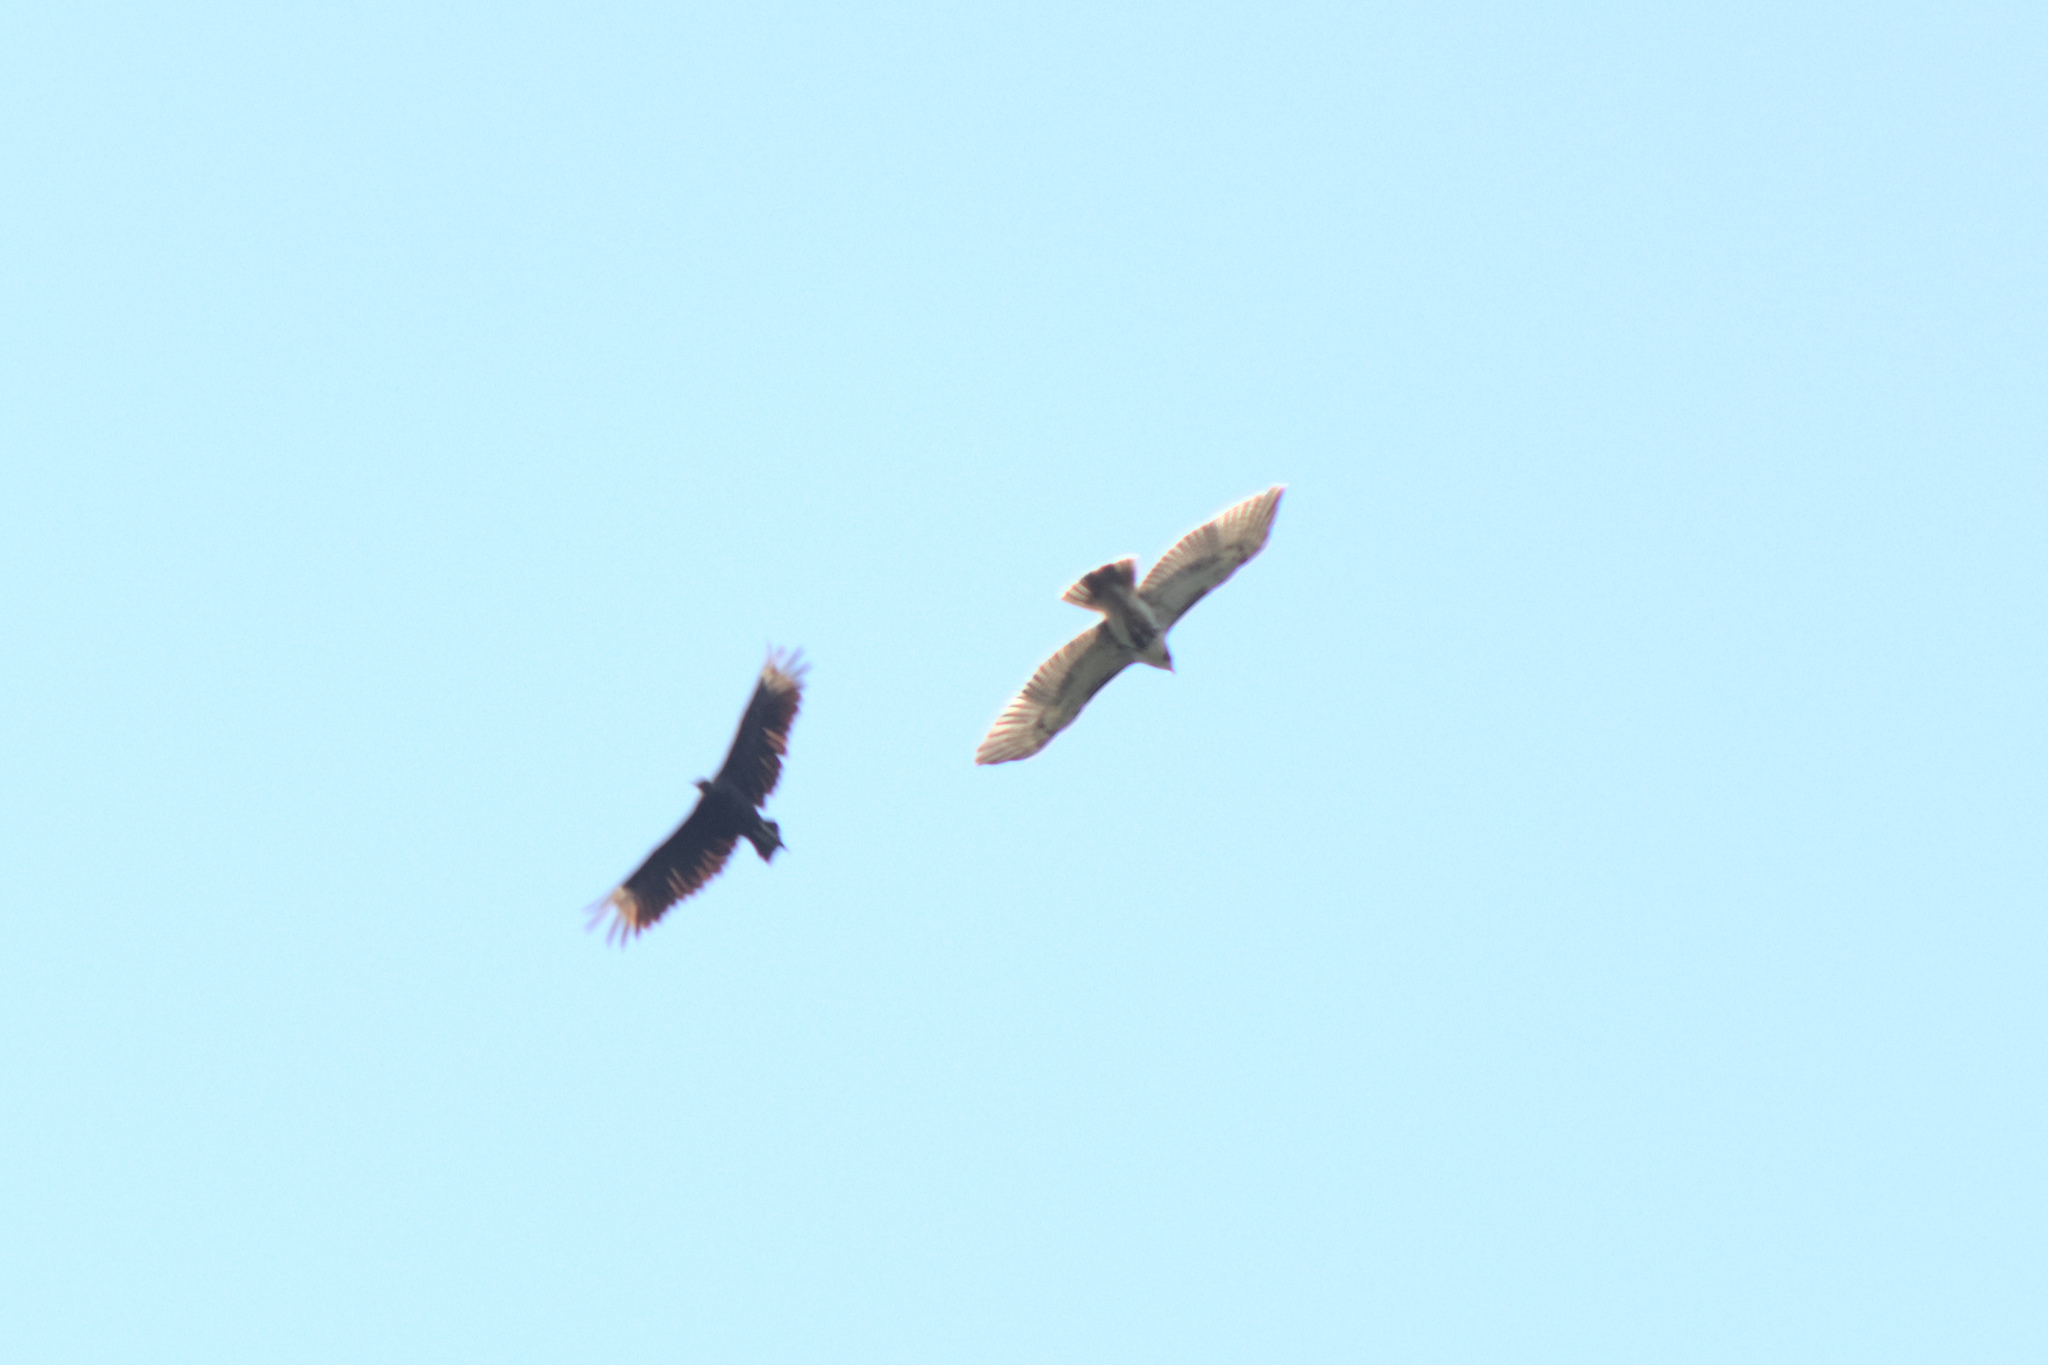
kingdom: Animalia
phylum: Chordata
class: Aves
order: Accipitriformes
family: Accipitridae
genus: Buteo
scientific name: Buteo jamaicensis
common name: Red-tailed hawk
